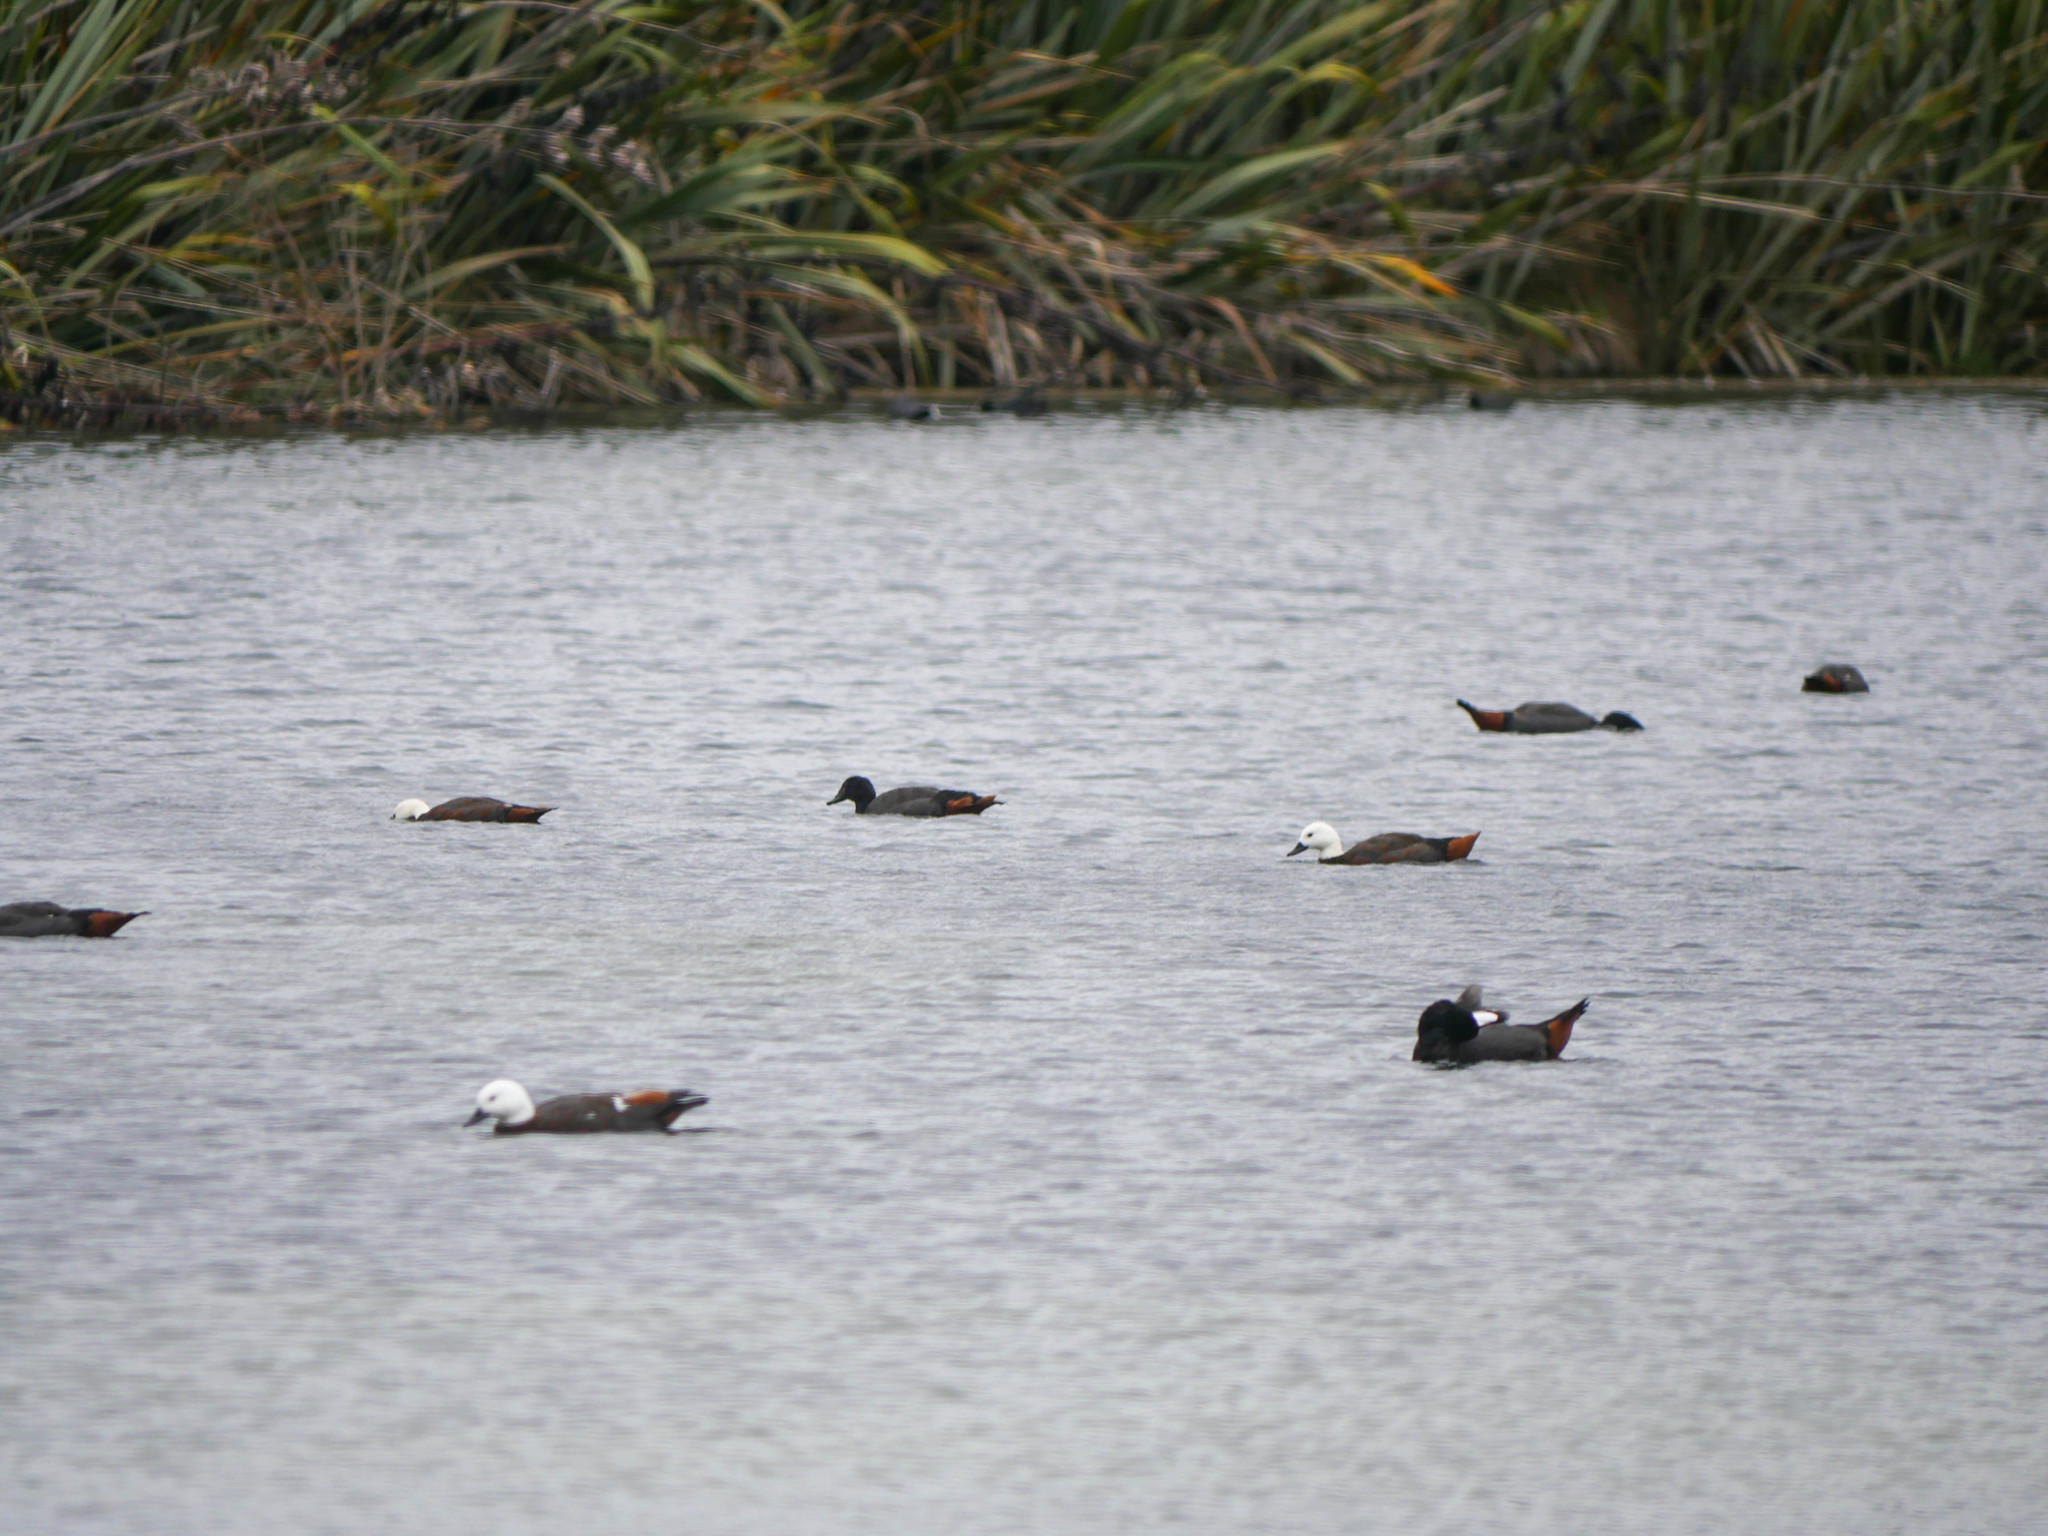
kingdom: Animalia
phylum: Chordata
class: Aves
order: Anseriformes
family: Anatidae
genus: Tadorna
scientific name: Tadorna variegata
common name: Paradise shelduck
